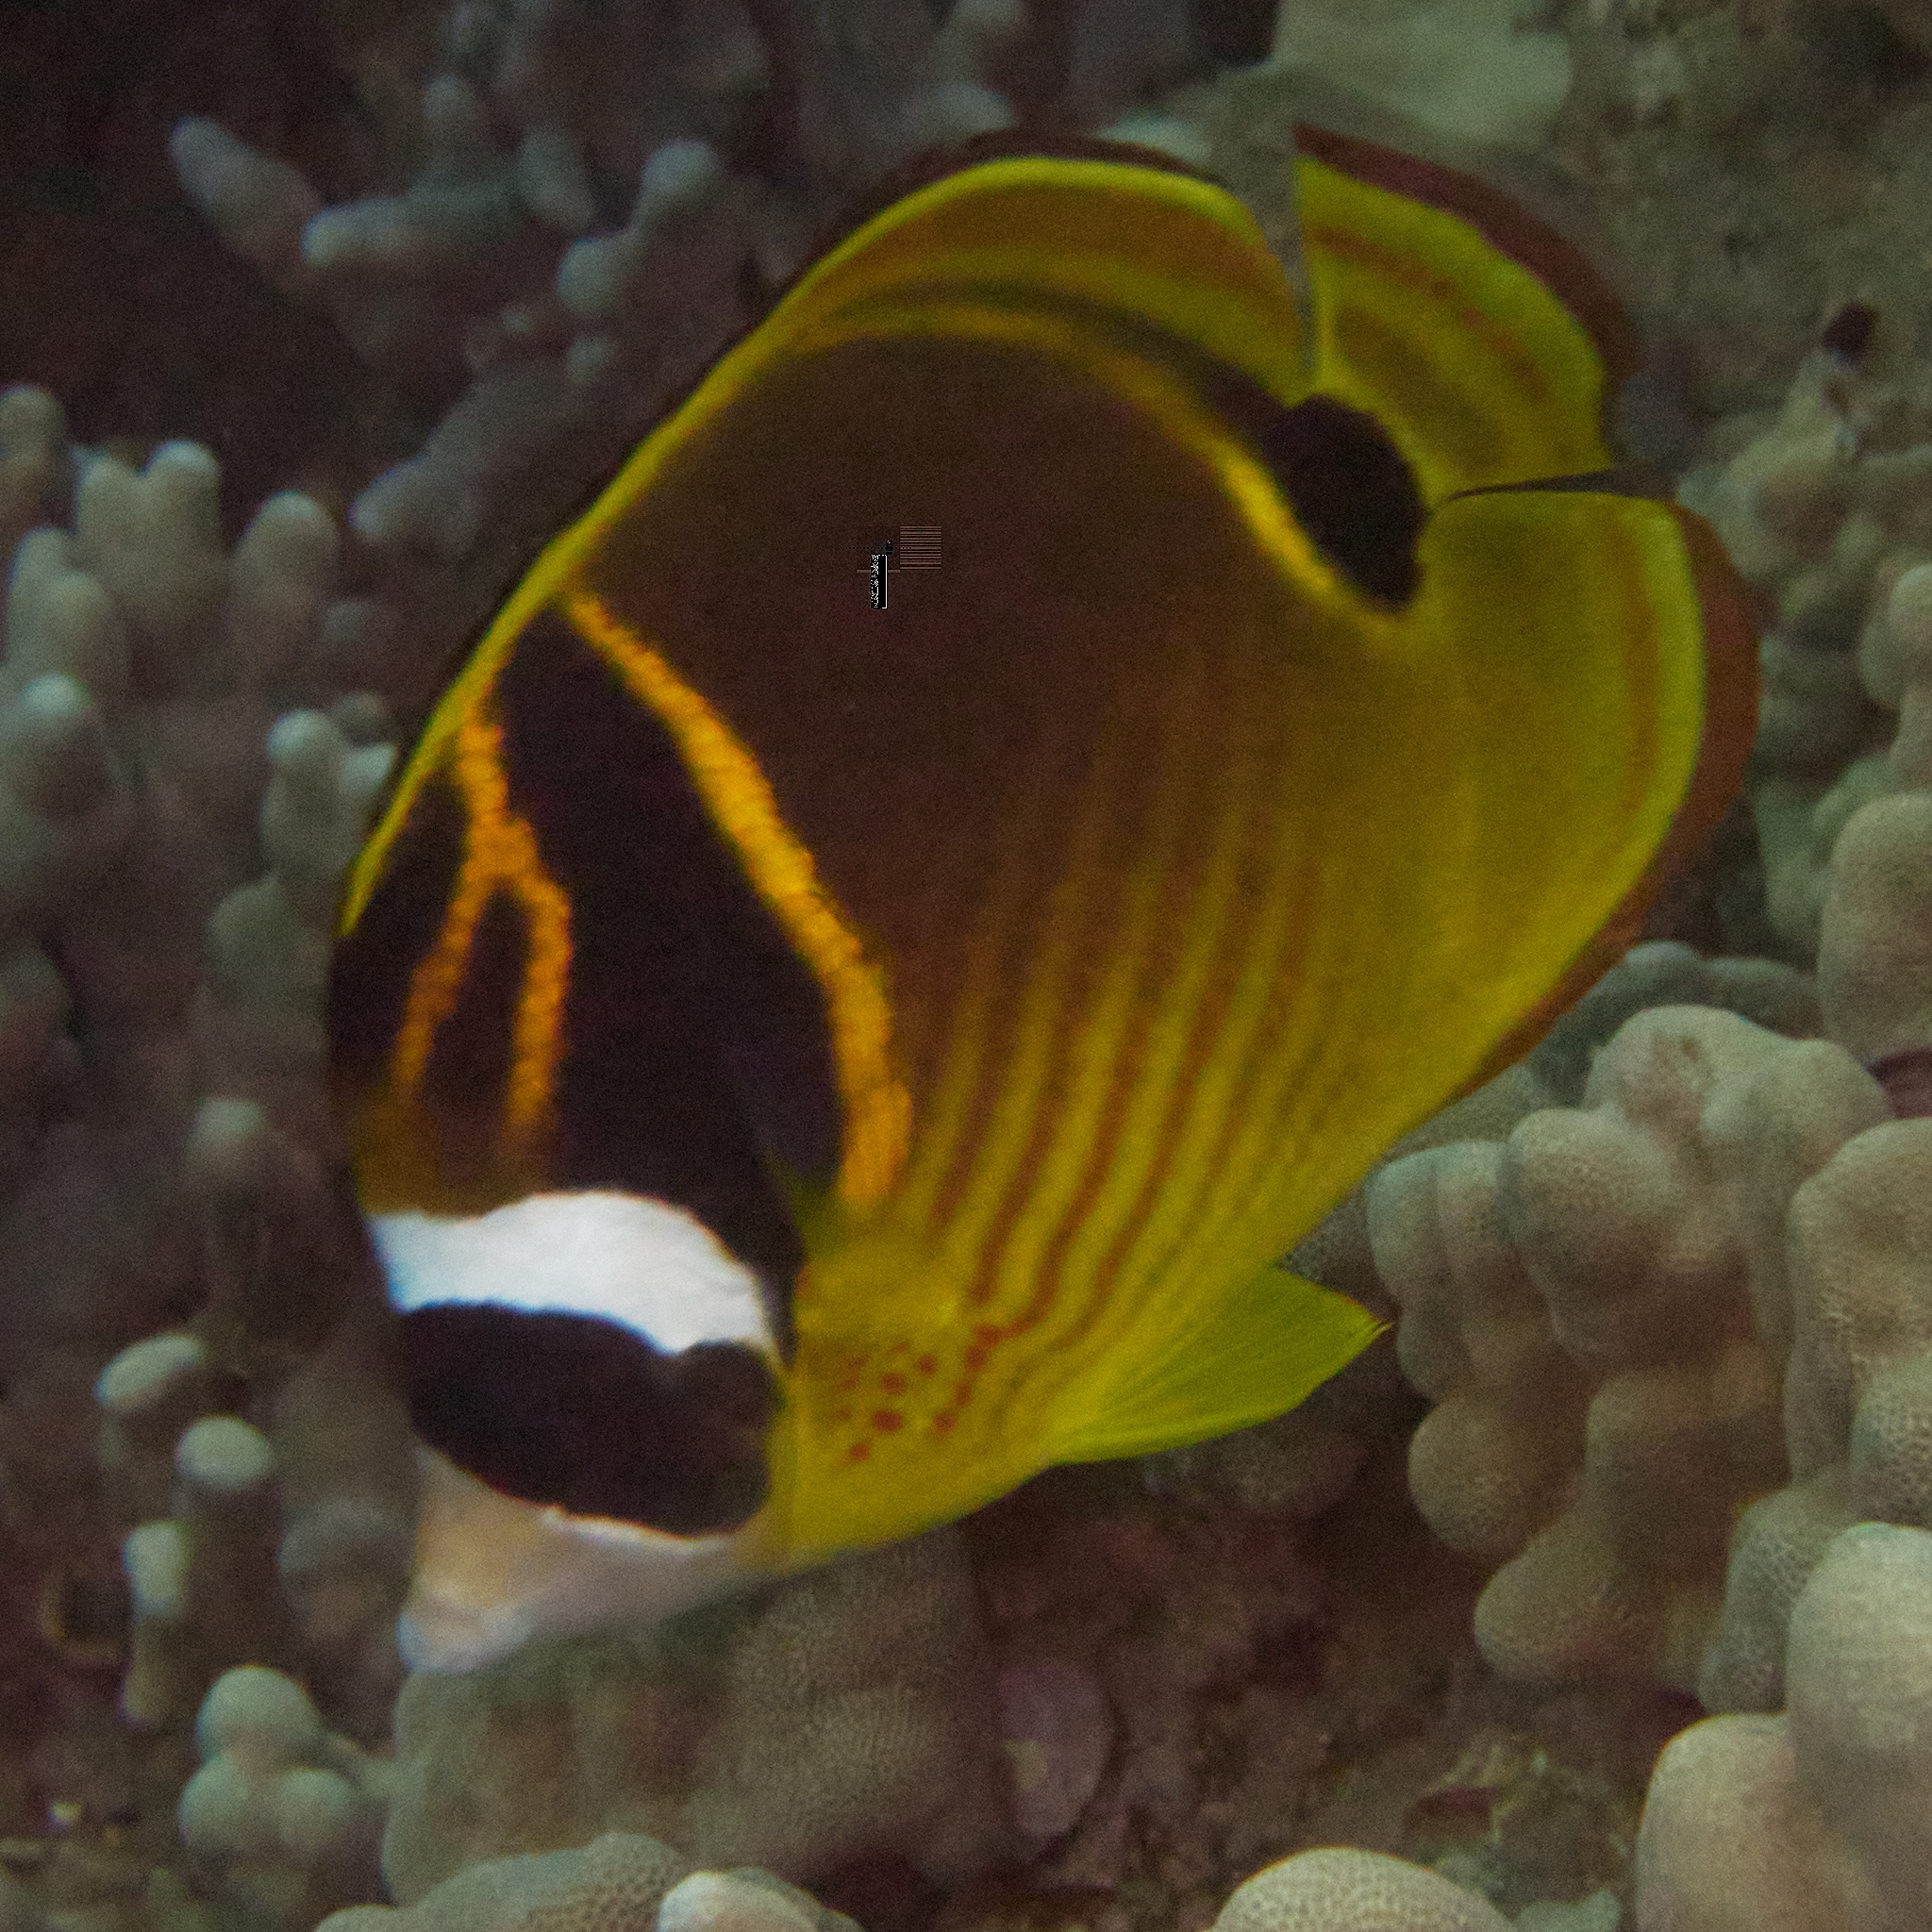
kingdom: Animalia
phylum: Chordata
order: Perciformes
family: Chaetodontidae
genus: Chaetodon
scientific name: Chaetodon lunula
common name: Raccoon butterflyfish
